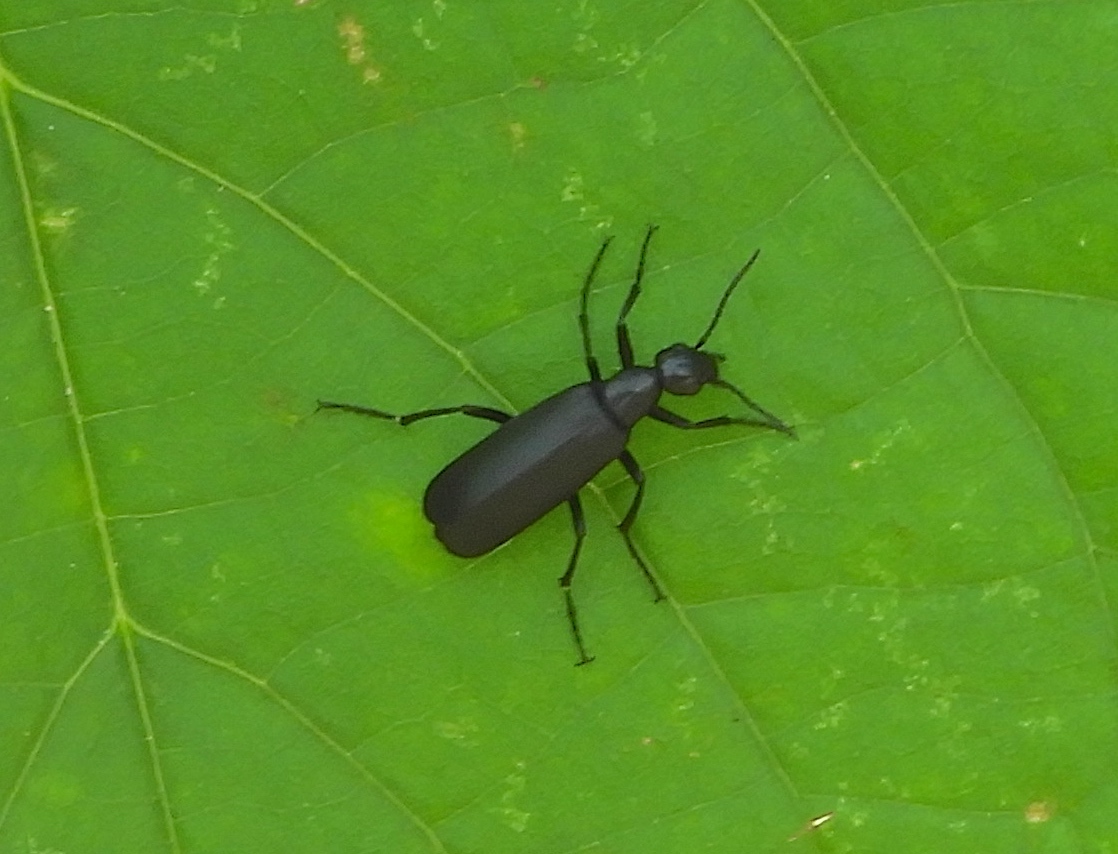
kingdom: Animalia
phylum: Arthropoda
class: Insecta
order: Coleoptera
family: Meloidae
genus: Epicauta
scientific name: Epicauta
